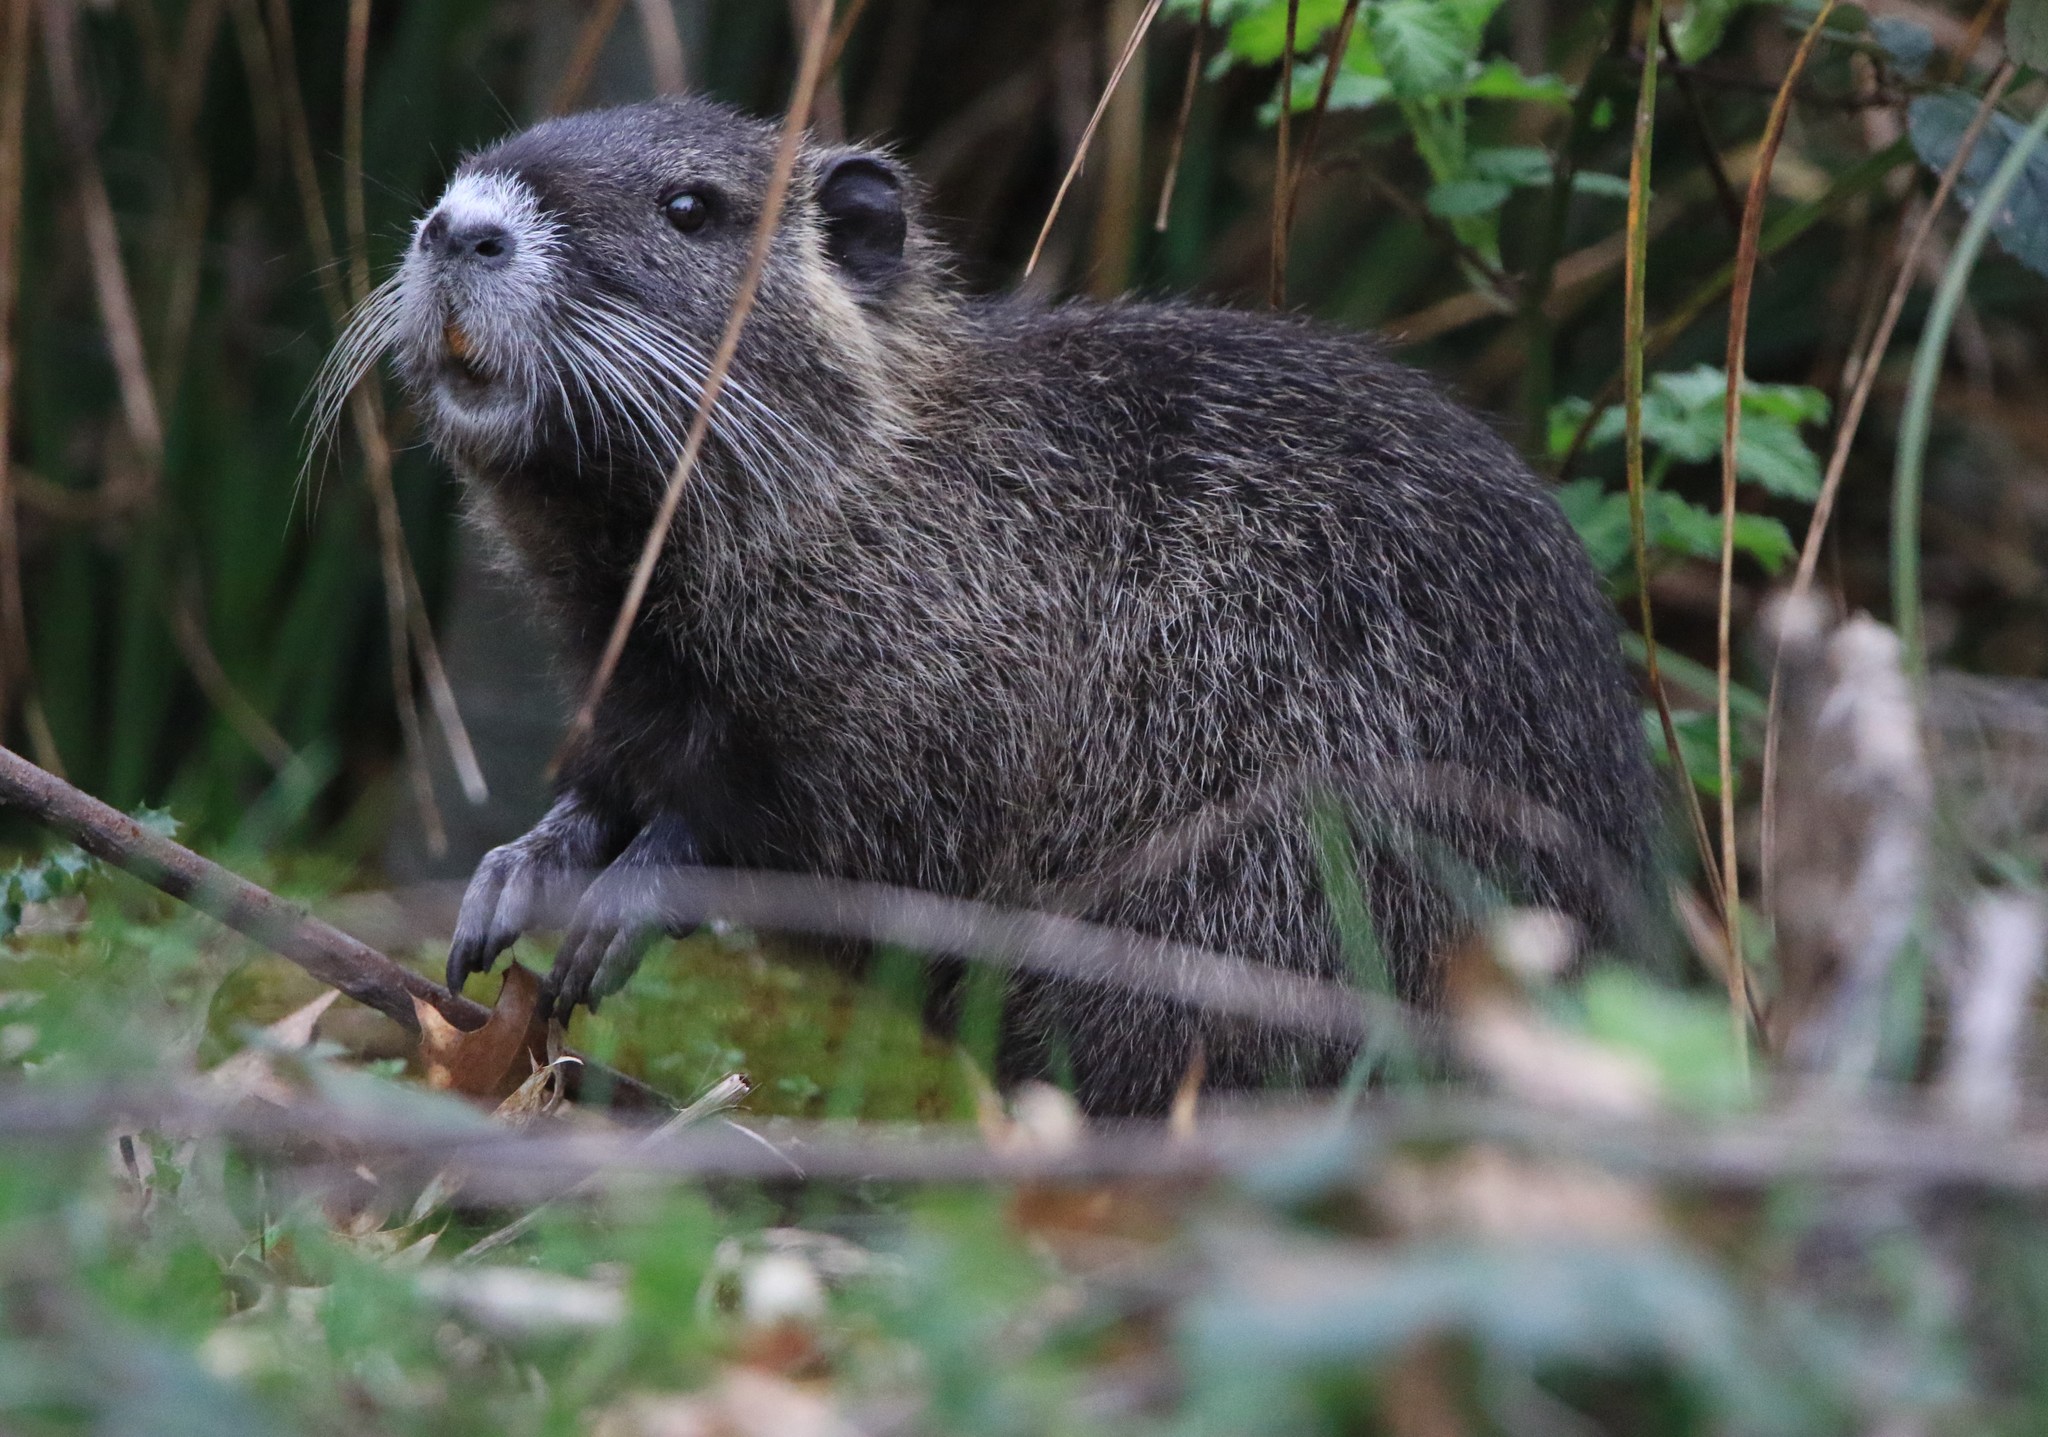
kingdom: Animalia
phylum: Chordata
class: Mammalia
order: Rodentia
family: Myocastoridae
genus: Myocastor
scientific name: Myocastor coypus
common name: Coypu
